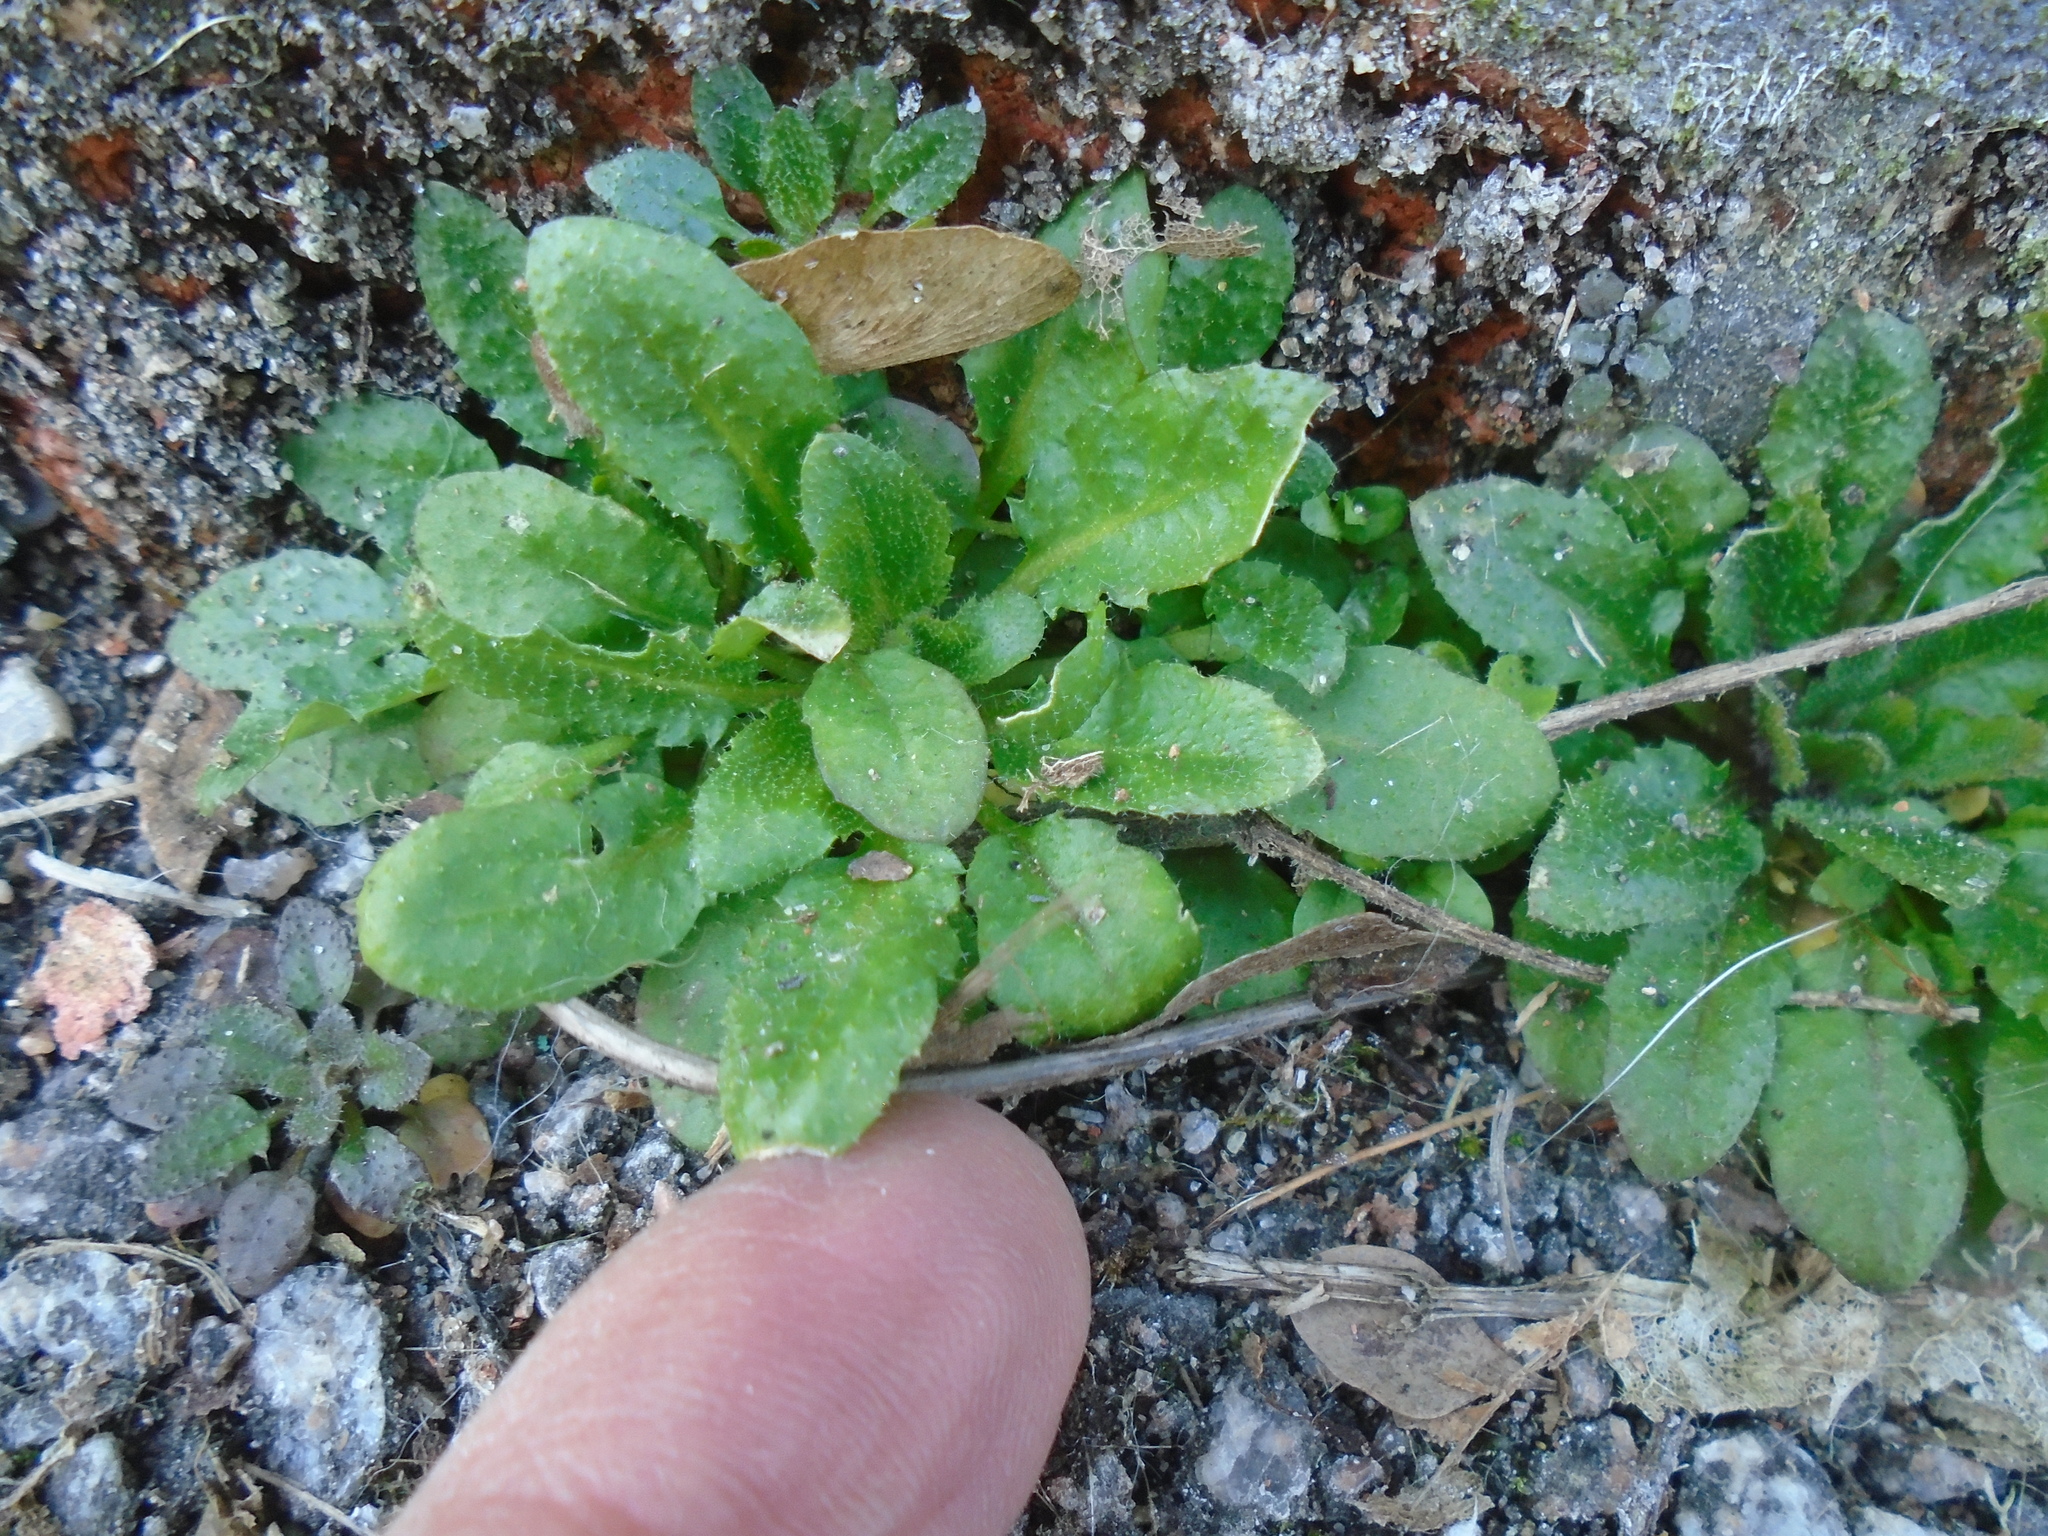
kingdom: Plantae
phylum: Tracheophyta
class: Magnoliopsida
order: Brassicales
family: Brassicaceae
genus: Arabidopsis
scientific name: Arabidopsis thaliana
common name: Thale cress
